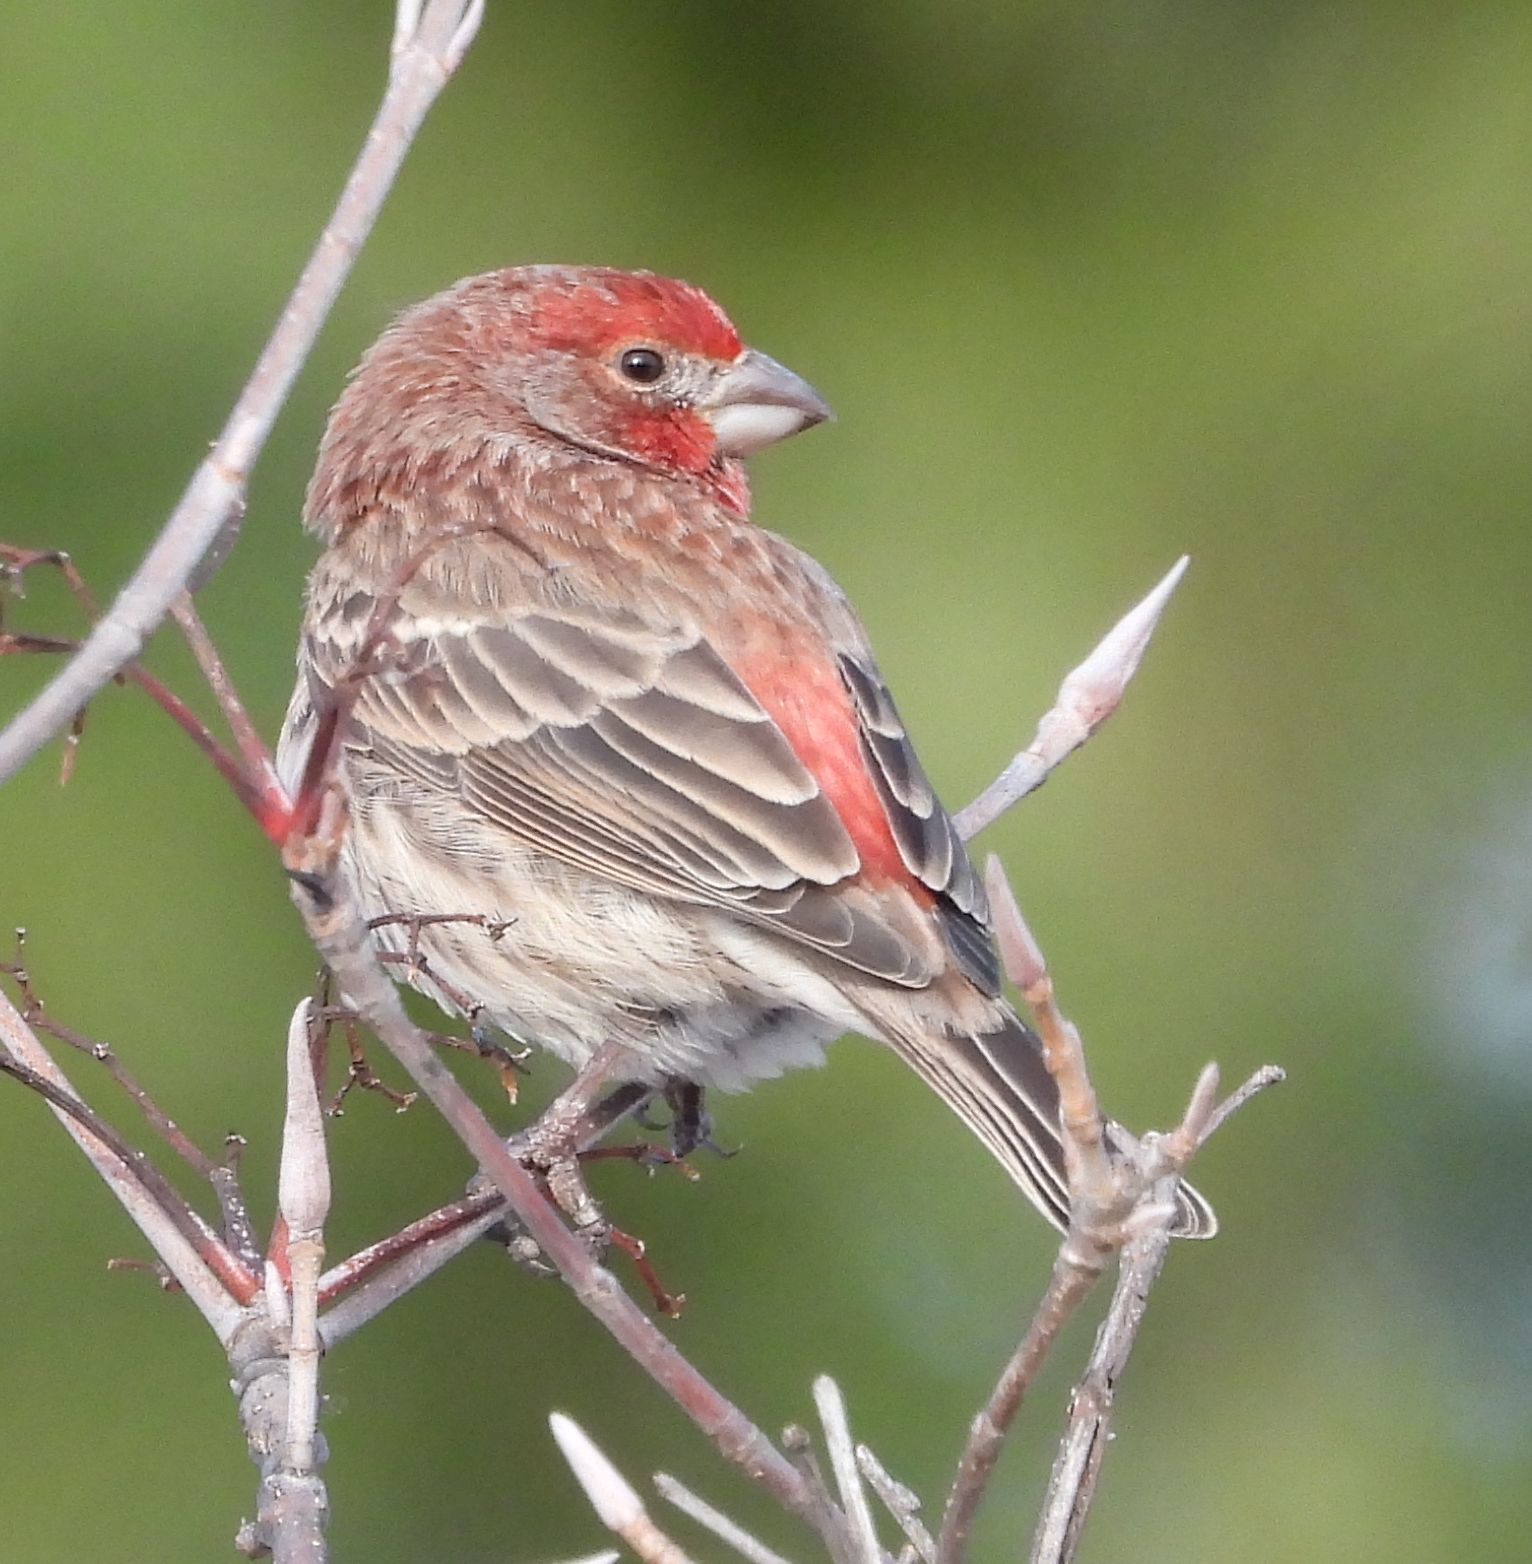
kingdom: Animalia
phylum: Chordata
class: Aves
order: Passeriformes
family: Fringillidae
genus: Haemorhous
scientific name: Haemorhous mexicanus
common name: House finch
